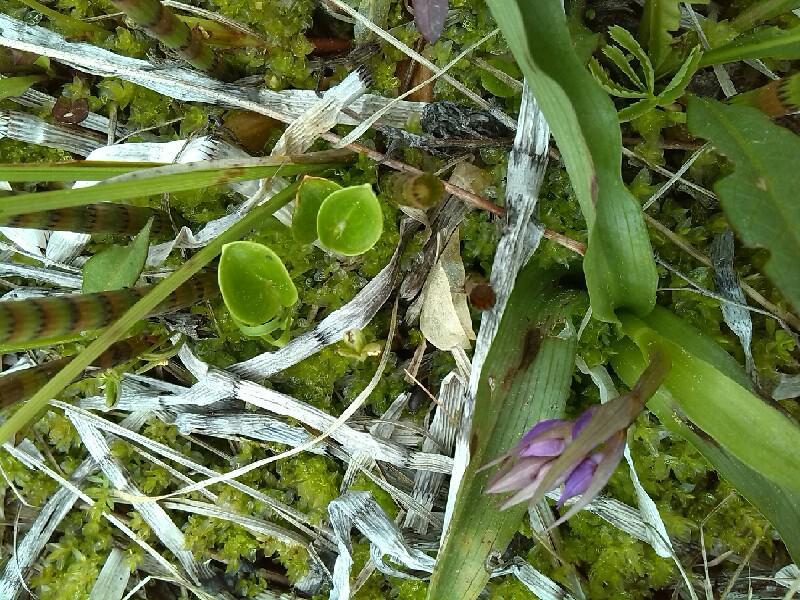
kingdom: Plantae
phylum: Tracheophyta
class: Magnoliopsida
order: Celastrales
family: Parnassiaceae
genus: Parnassia
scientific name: Parnassia palustris
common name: Grass-of-parnassus
